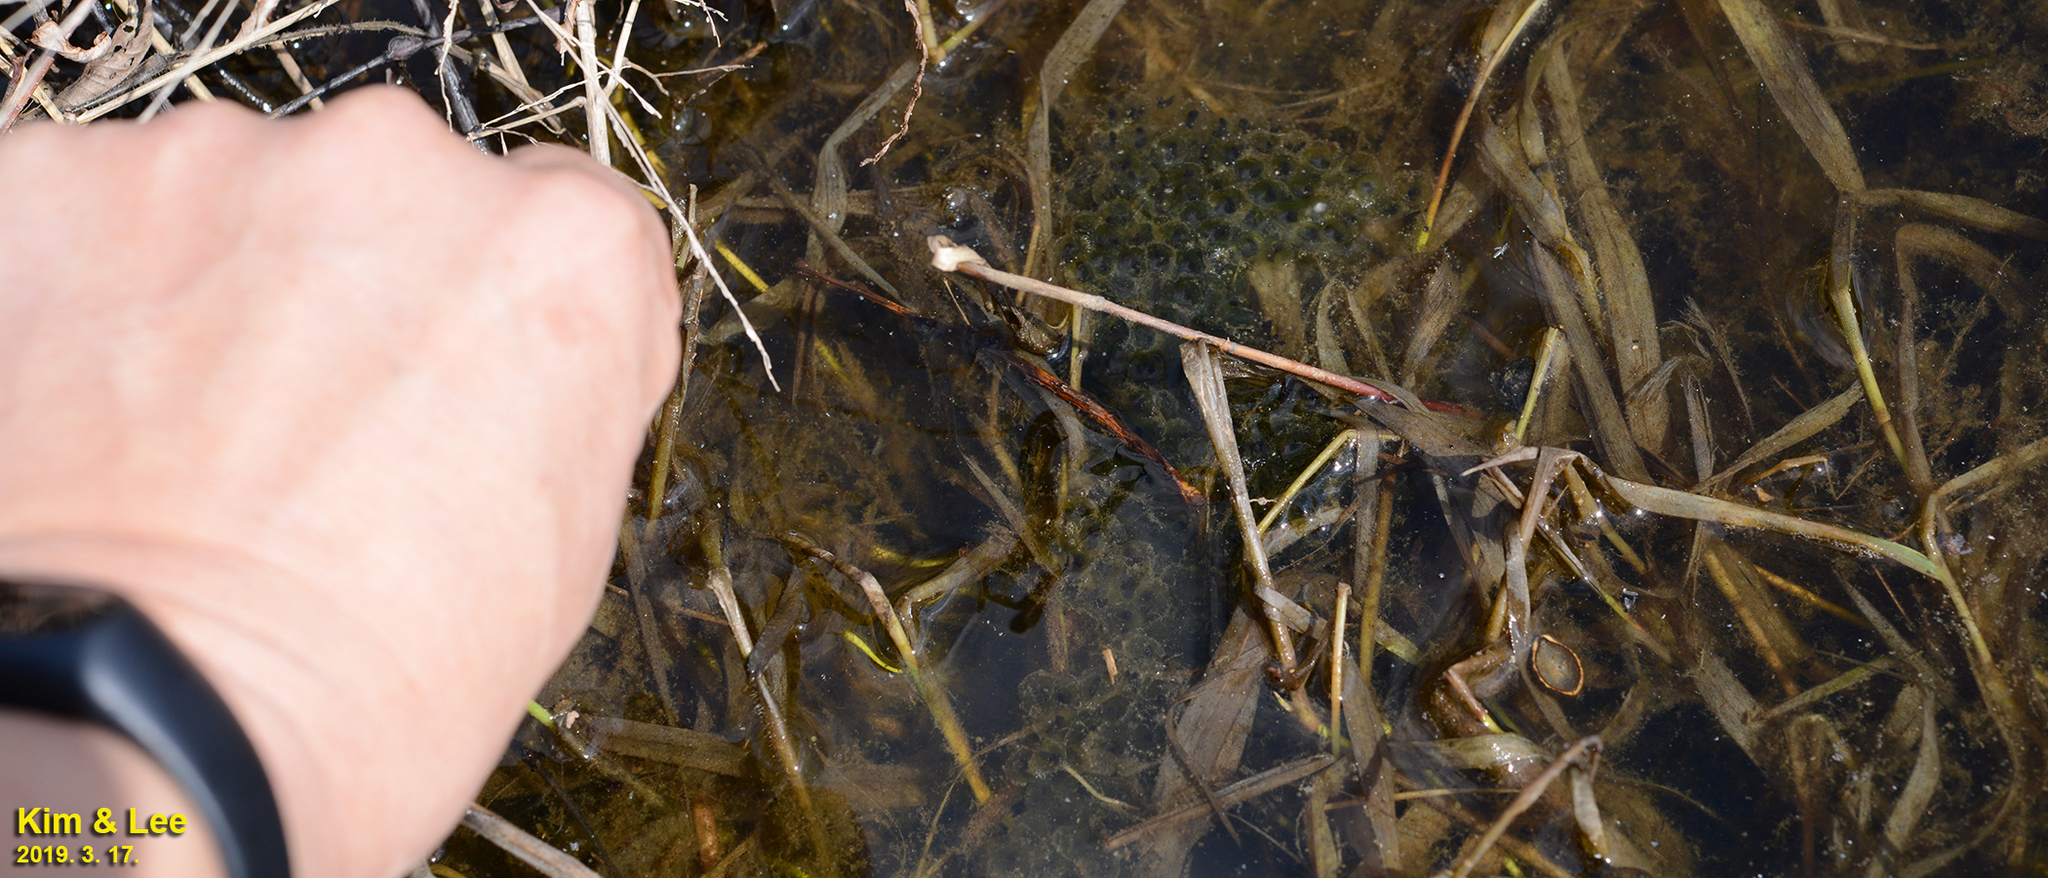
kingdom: Animalia
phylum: Chordata
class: Amphibia
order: Anura
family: Ranidae
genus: Rana
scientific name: Rana coreana
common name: Korean brown frog
